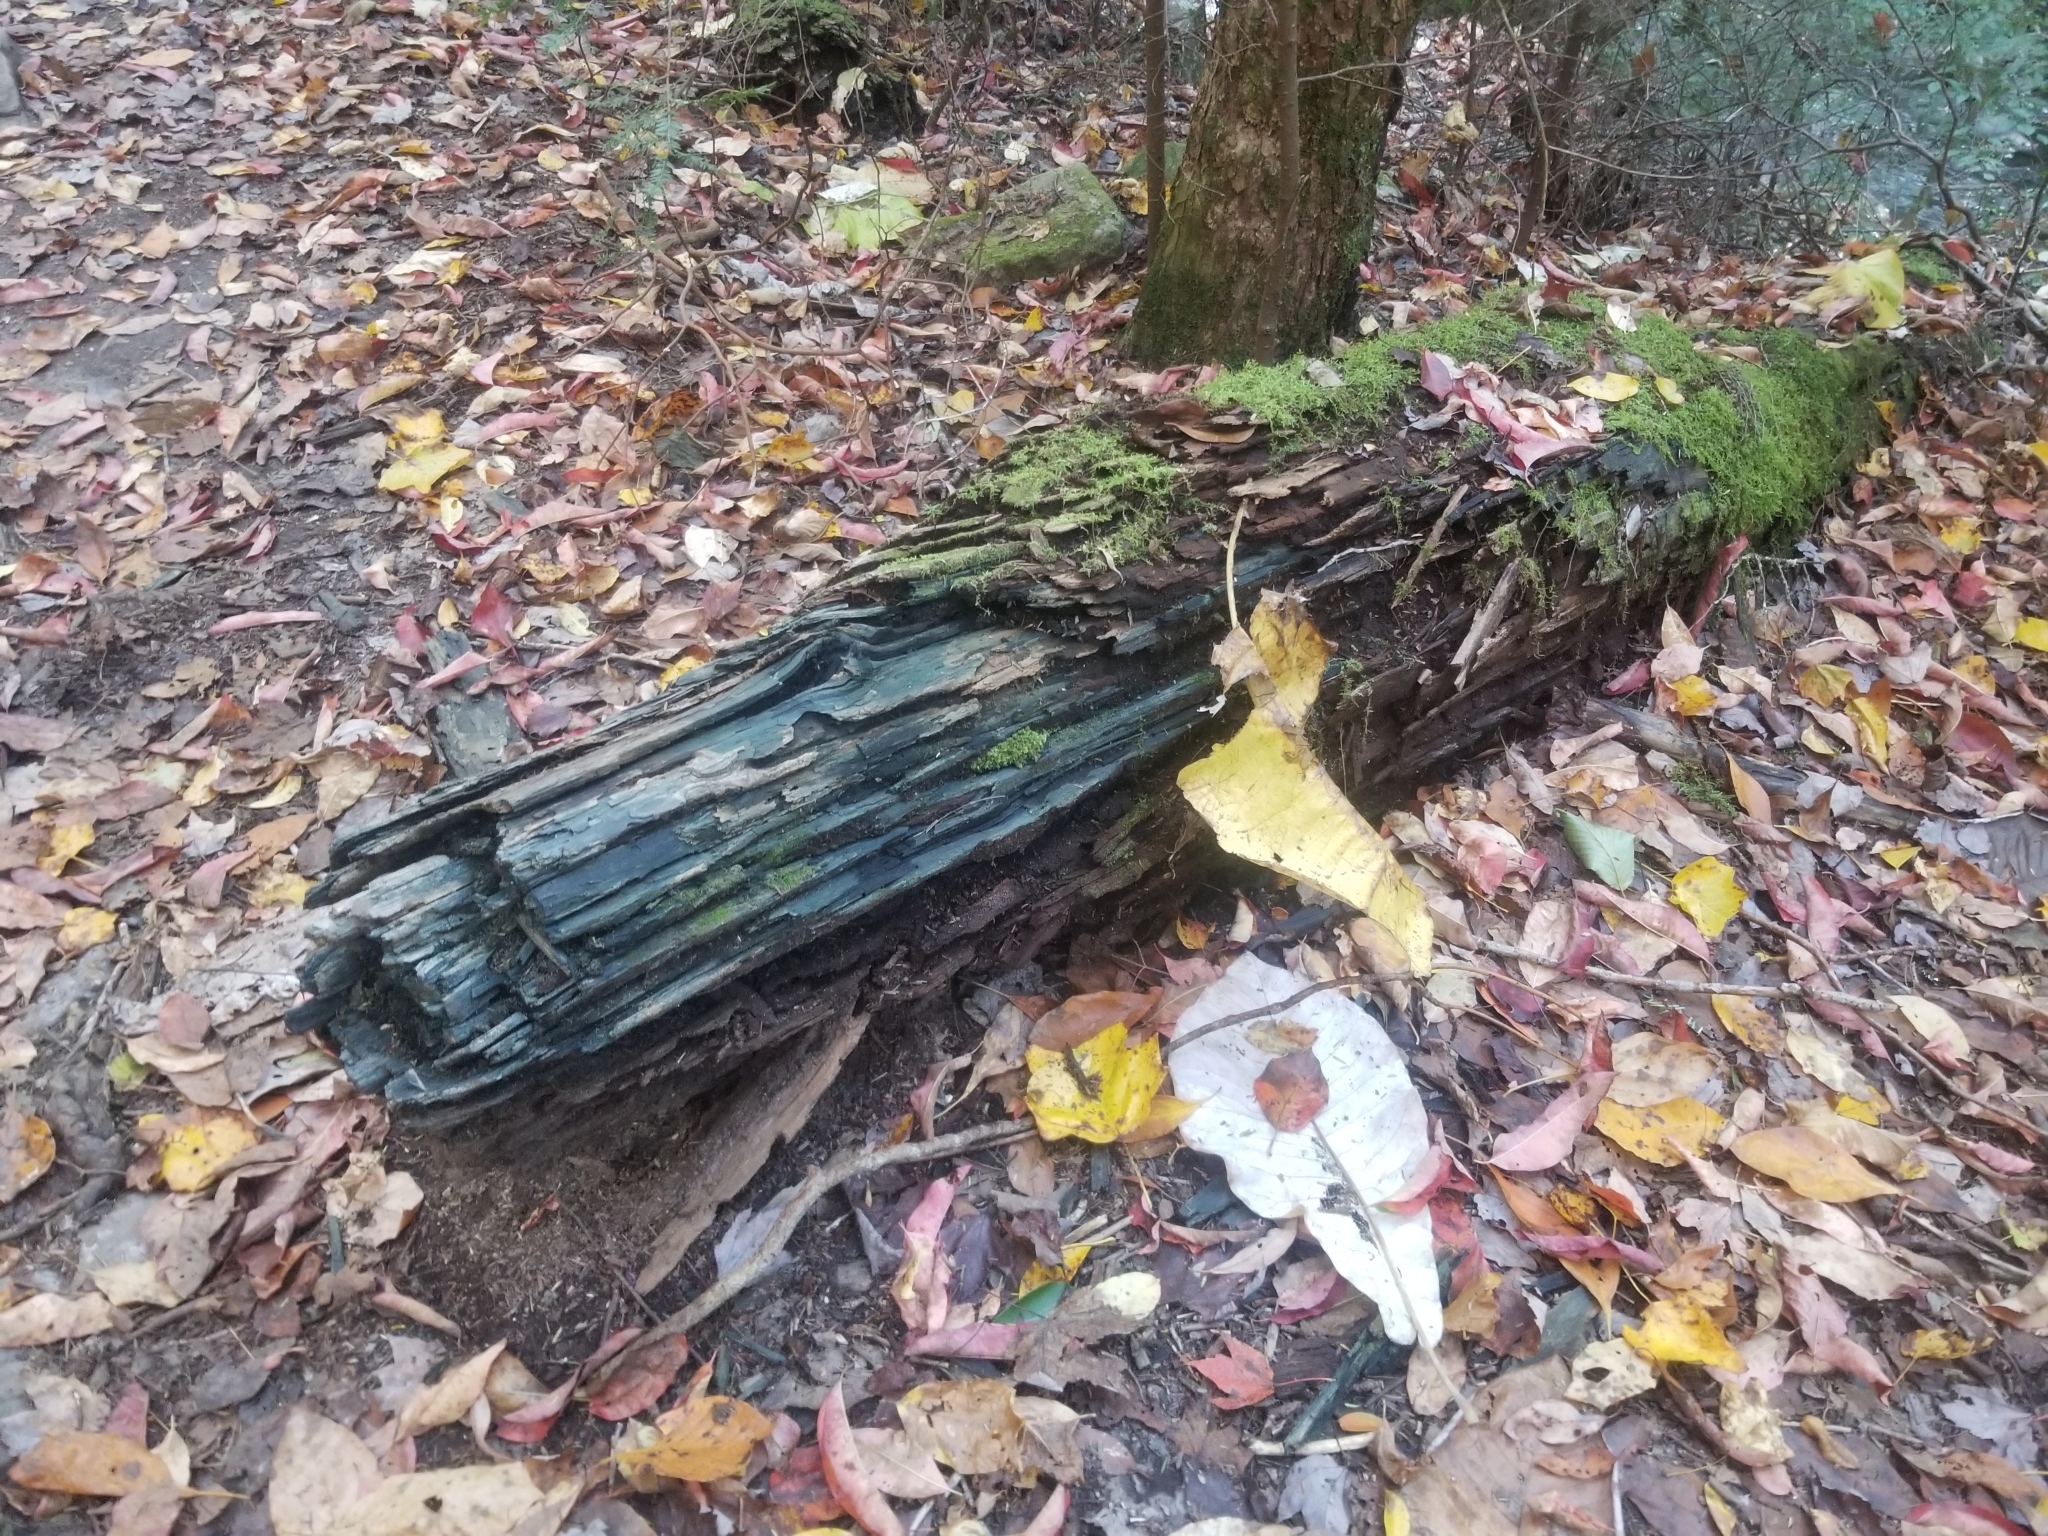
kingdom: Fungi
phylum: Ascomycota
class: Leotiomycetes
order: Helotiales
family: Chlorociboriaceae
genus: Chlorociboria
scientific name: Chlorociboria
